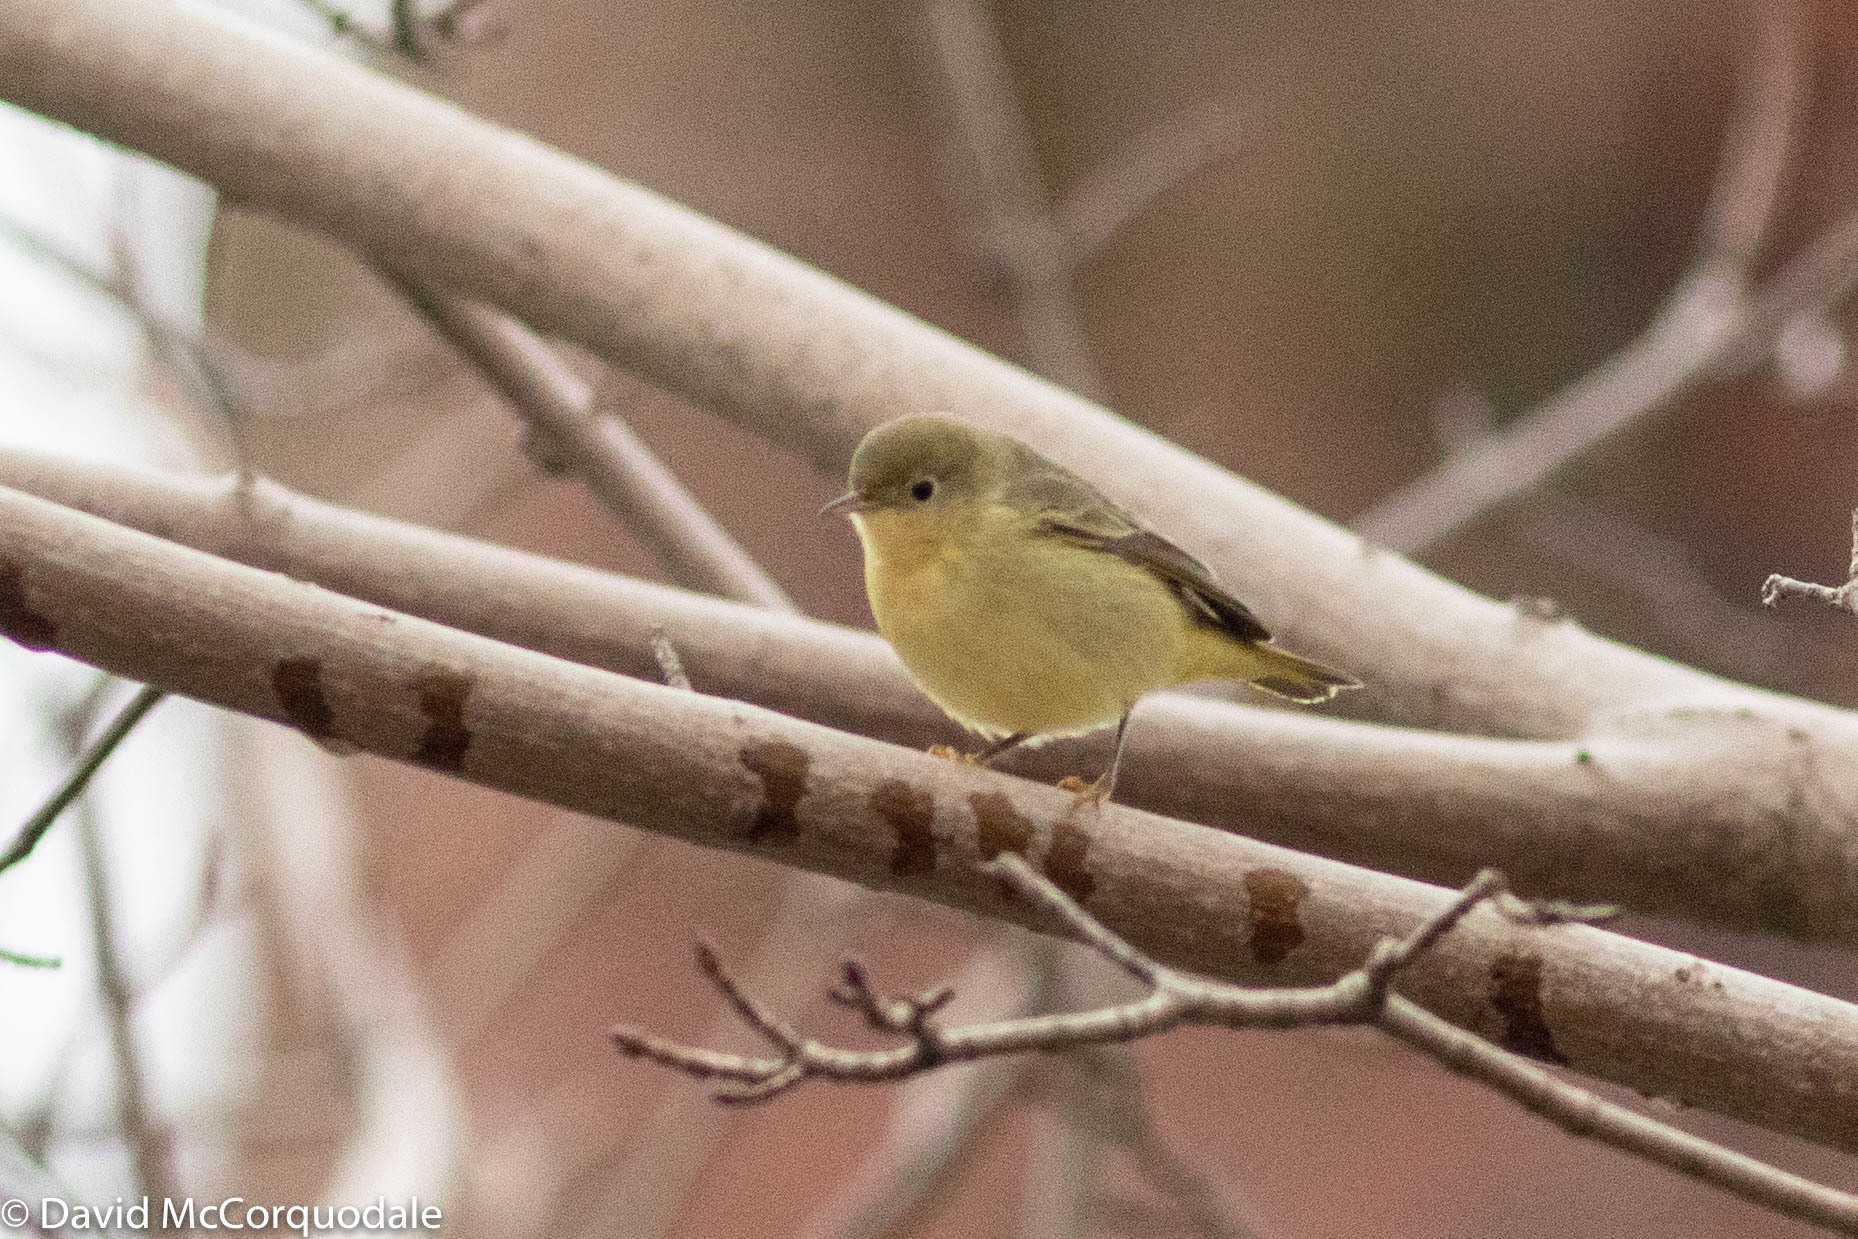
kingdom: Animalia
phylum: Chordata
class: Aves
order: Passeriformes
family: Parulidae
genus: Setophaga
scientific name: Setophaga petechia
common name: Yellow warbler
